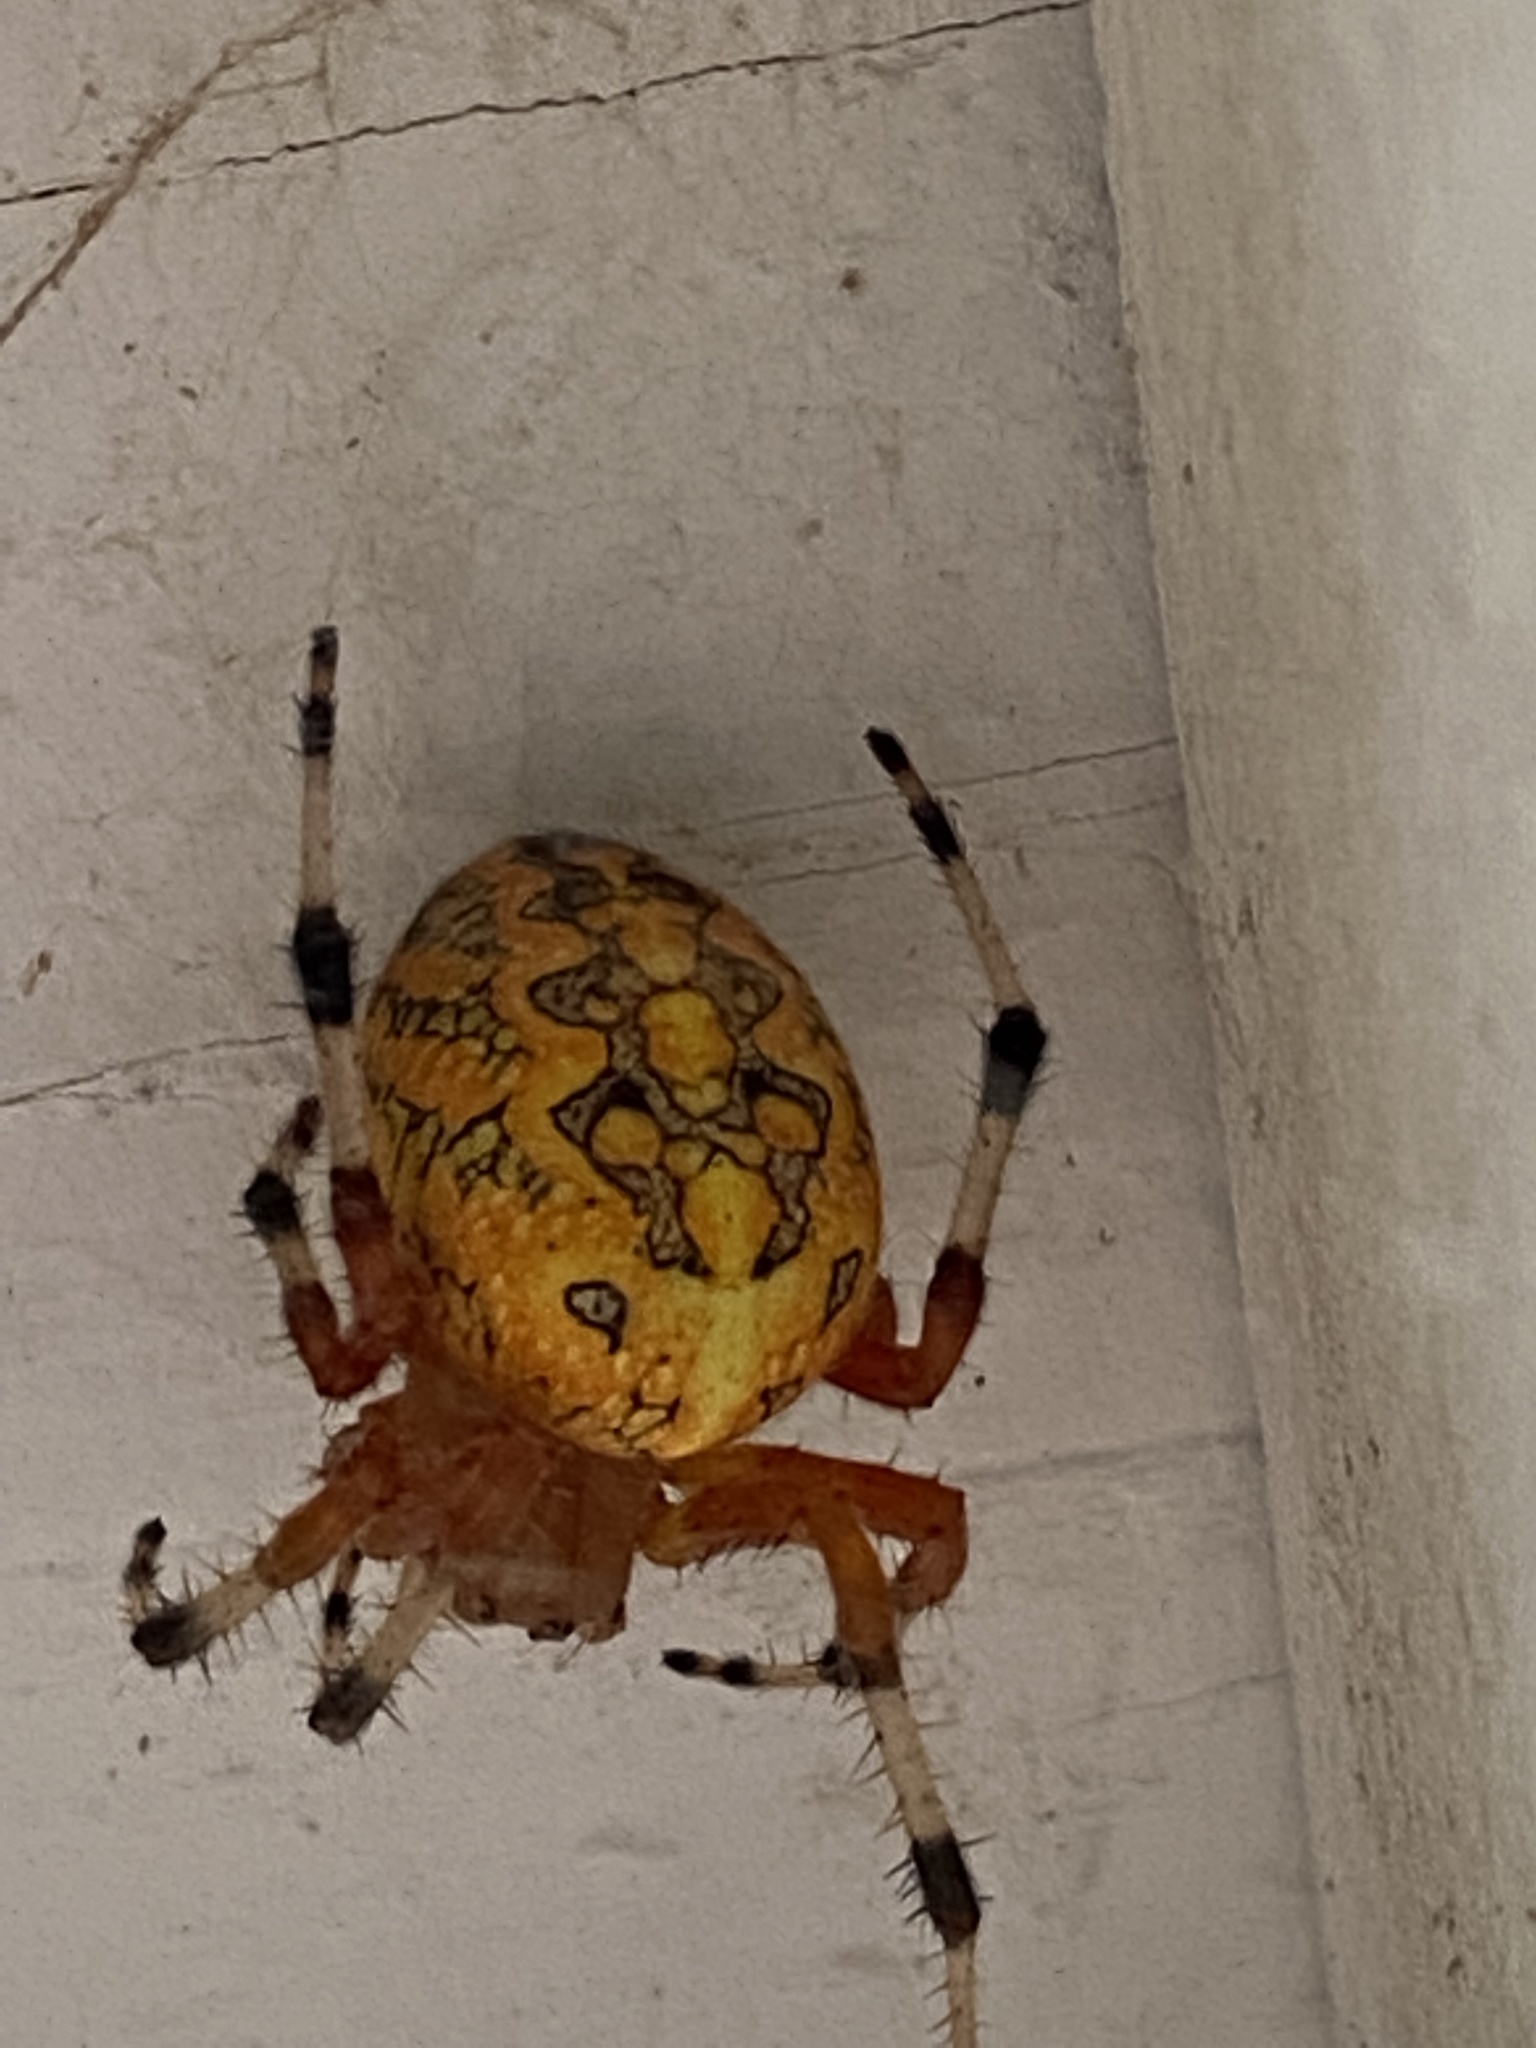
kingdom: Animalia
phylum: Arthropoda
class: Arachnida
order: Araneae
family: Araneidae
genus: Araneus
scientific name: Araneus marmoreus
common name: Marbled orbweaver
